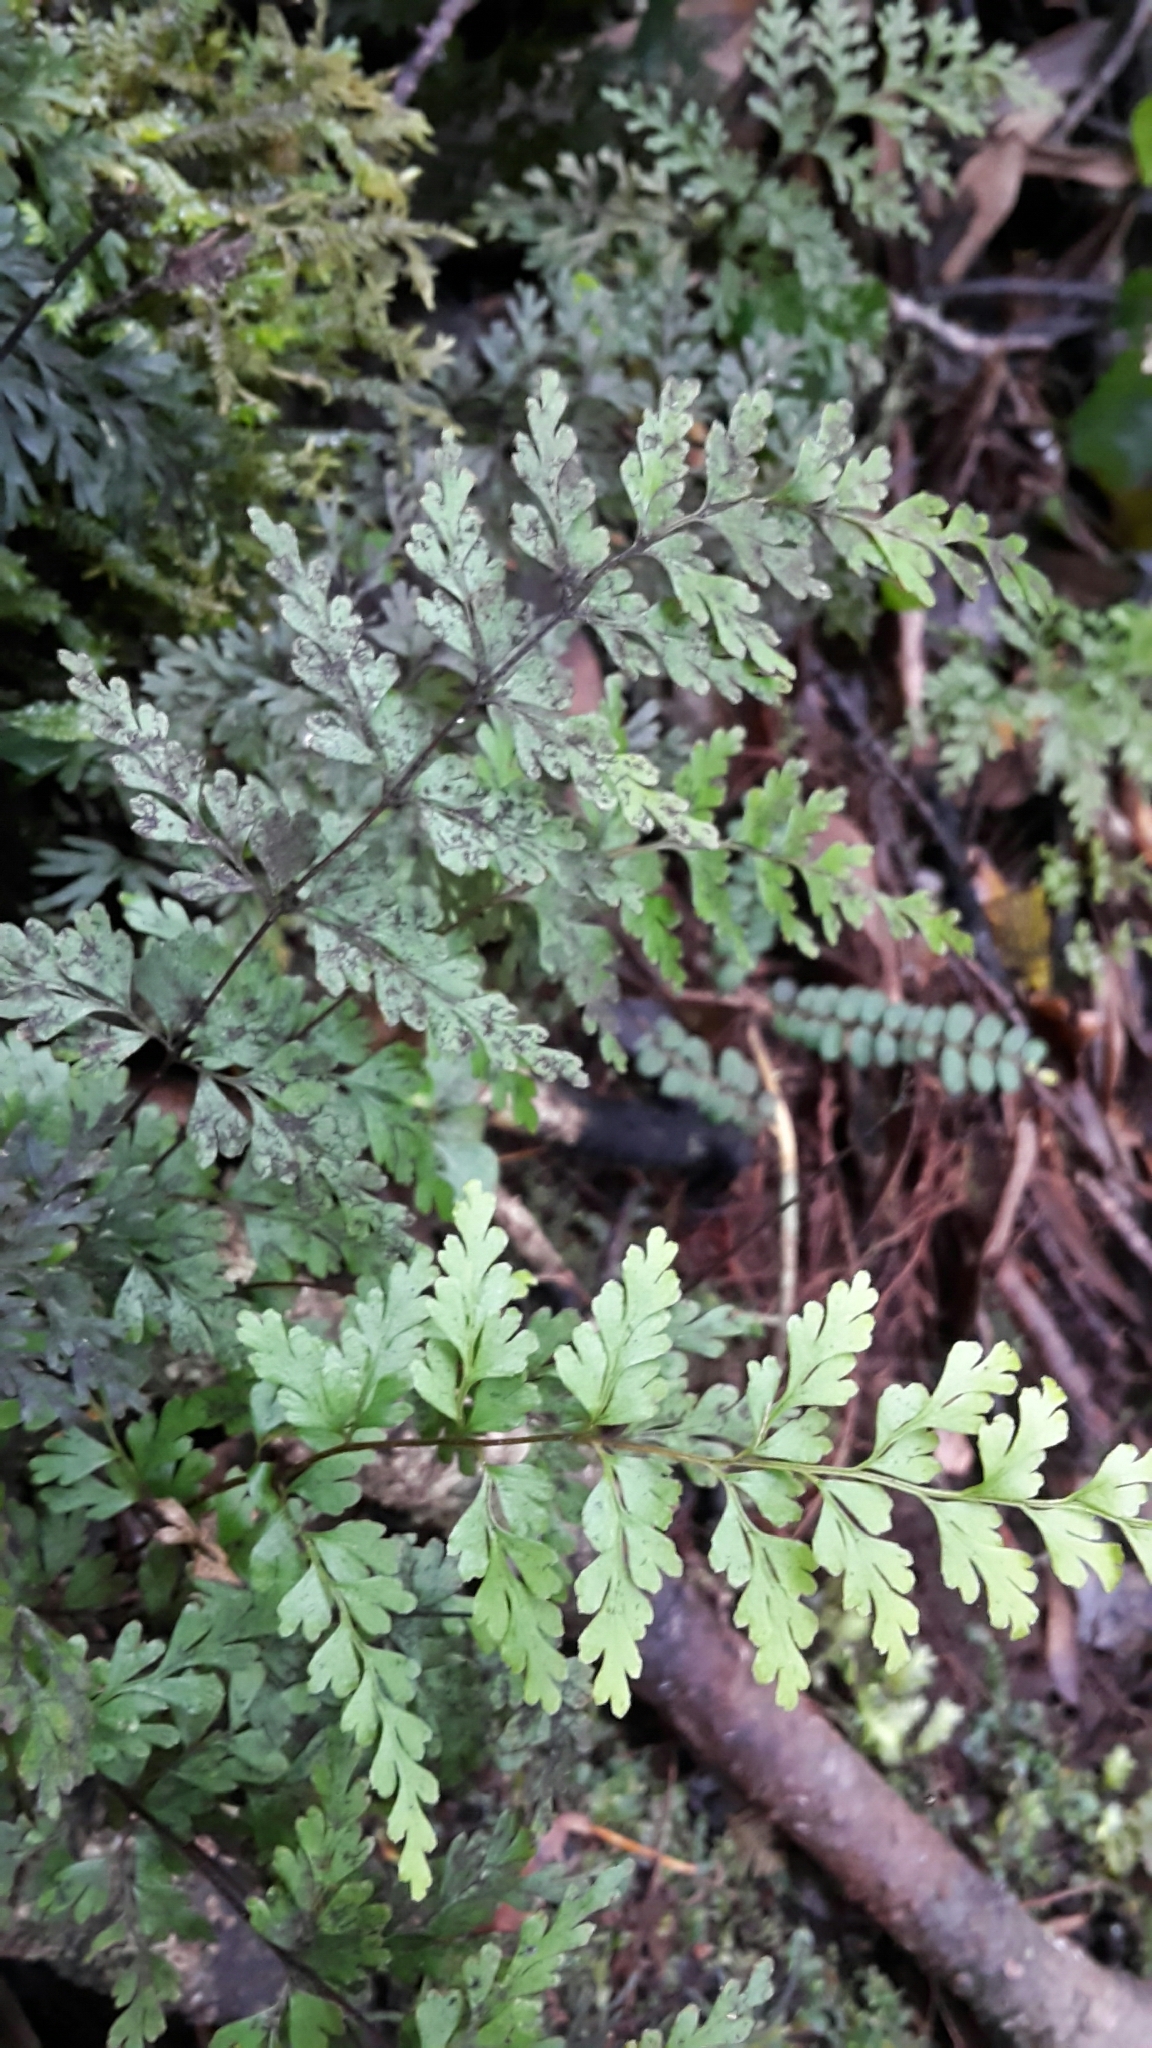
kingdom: Plantae
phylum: Tracheophyta
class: Polypodiopsida
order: Polypodiales
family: Lindsaeaceae
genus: Lindsaea
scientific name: Lindsaea trichomanoides
